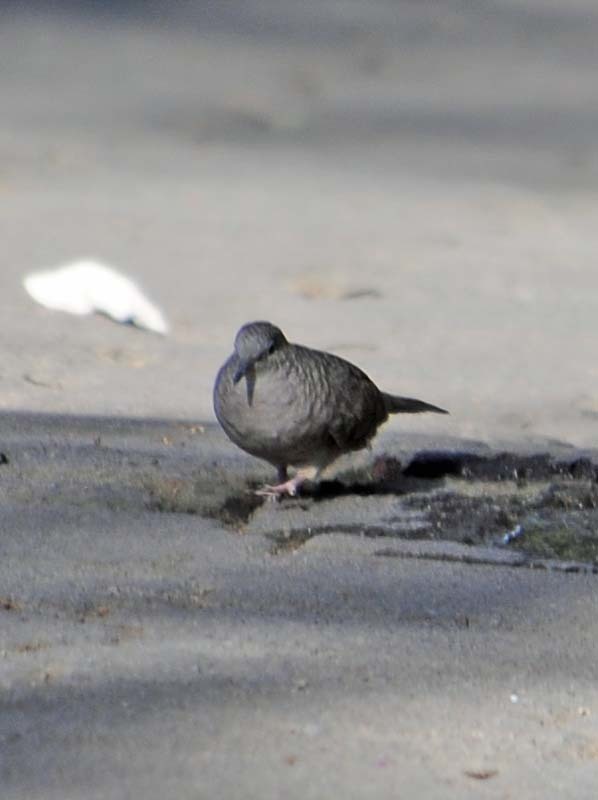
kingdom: Animalia
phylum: Chordata
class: Aves
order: Columbiformes
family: Columbidae
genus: Columbina
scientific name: Columbina inca
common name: Inca dove
